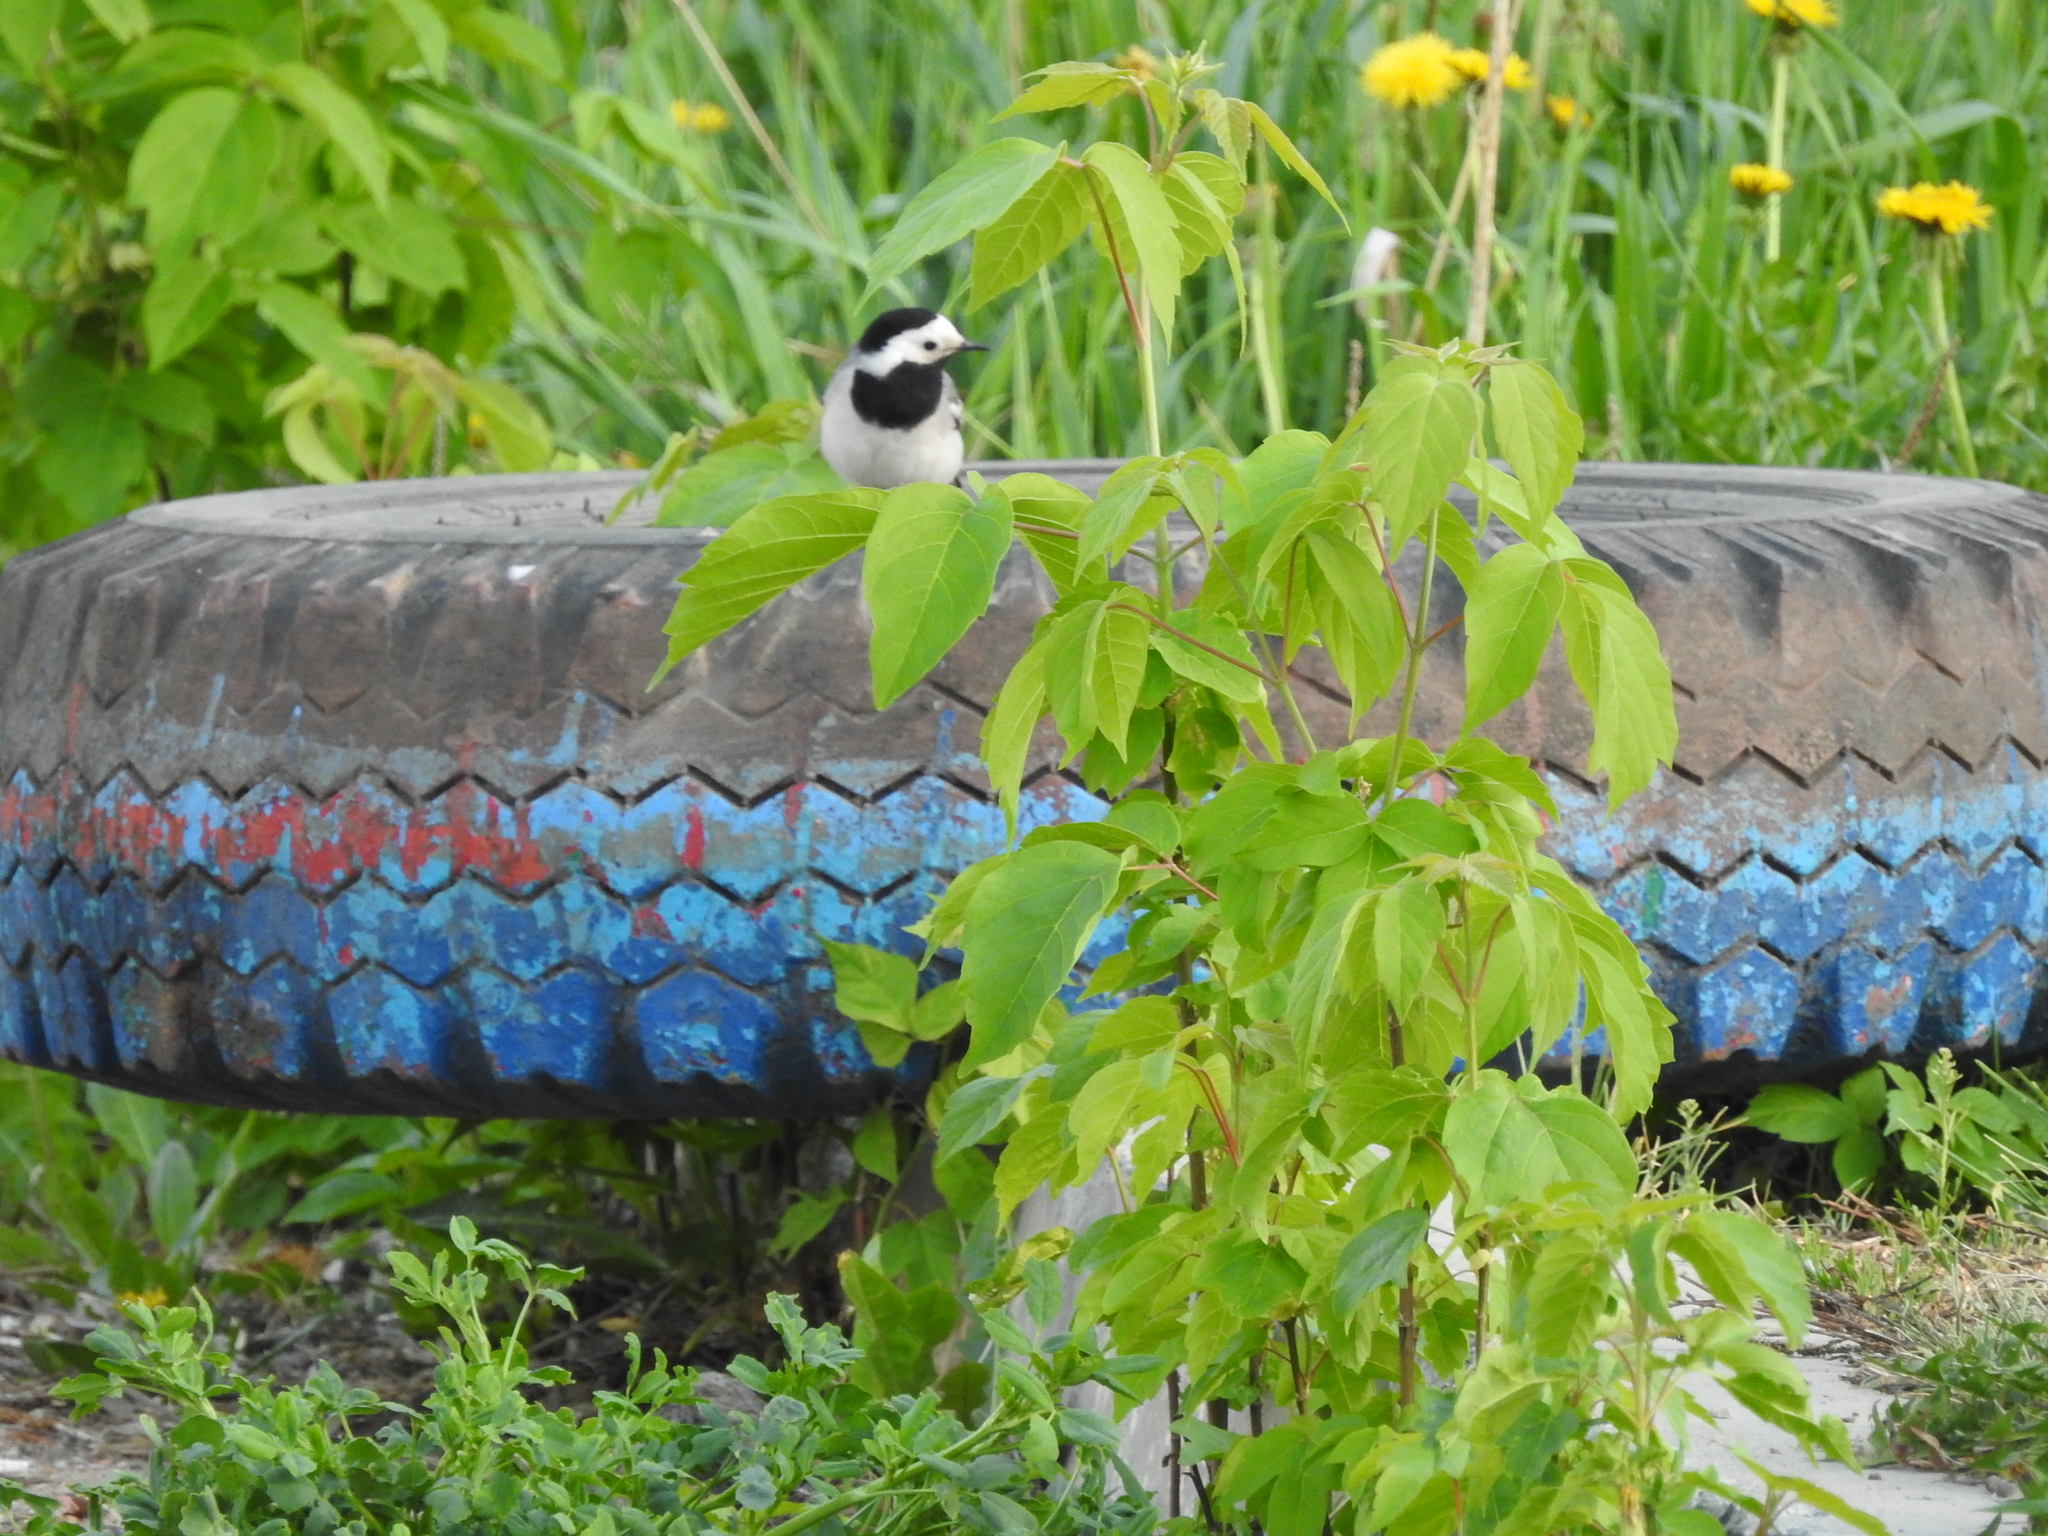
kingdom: Animalia
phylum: Chordata
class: Aves
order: Passeriformes
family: Motacillidae
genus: Motacilla
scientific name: Motacilla alba
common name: White wagtail
